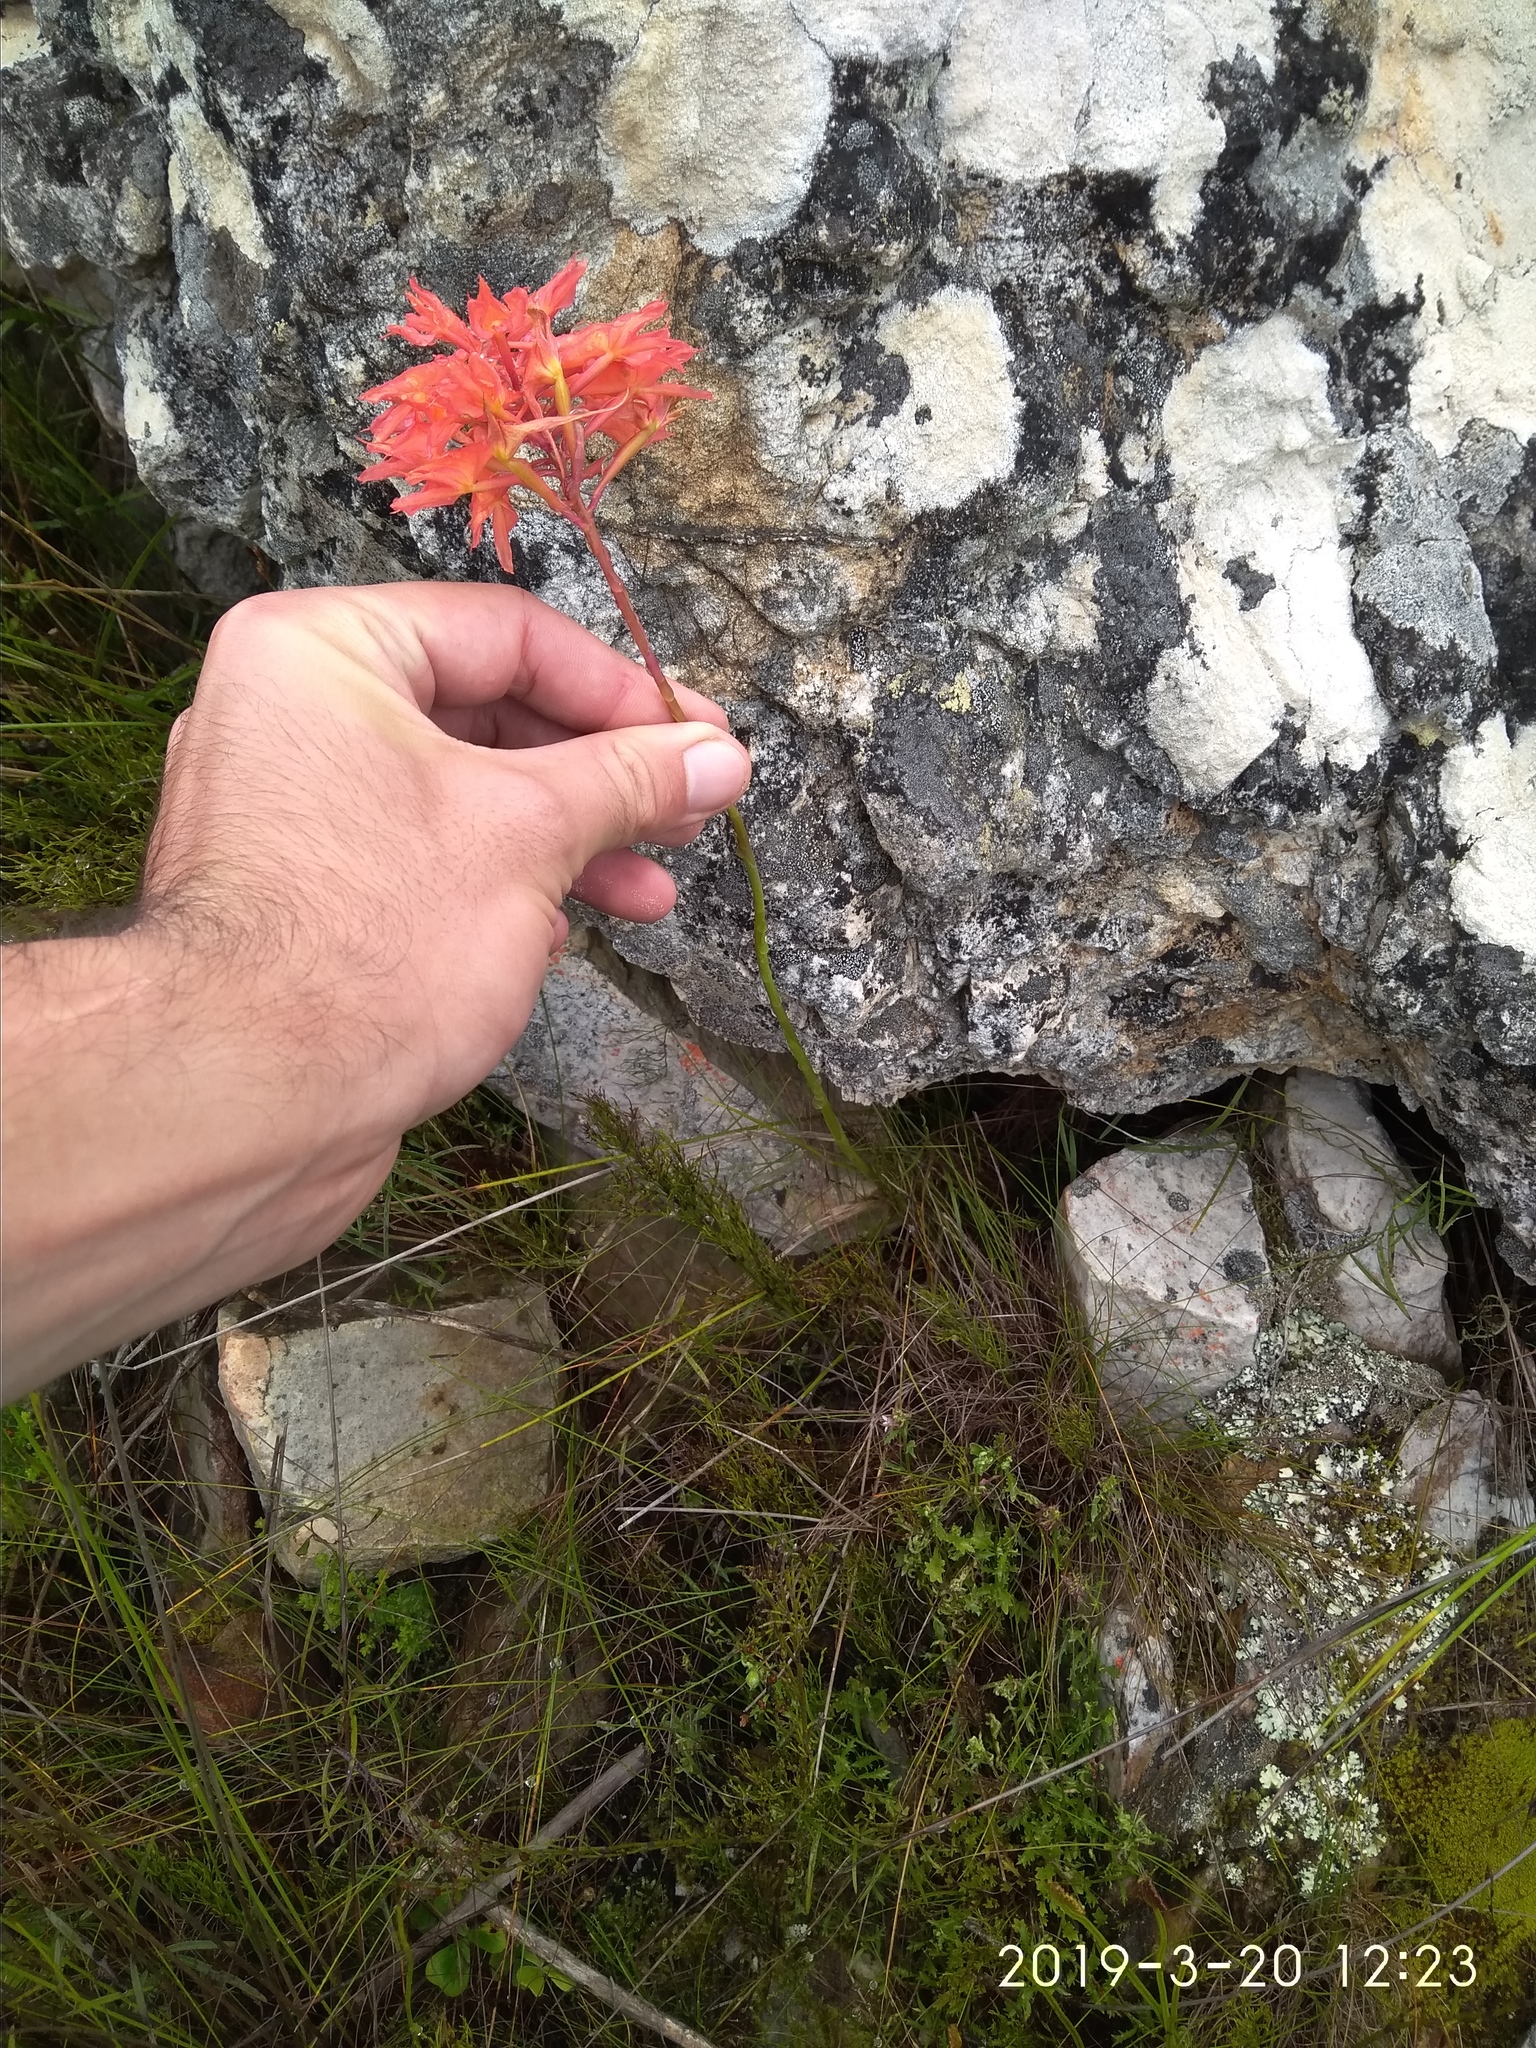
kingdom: Plantae
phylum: Tracheophyta
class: Liliopsida
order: Asparagales
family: Orchidaceae
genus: Disa
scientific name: Disa ferruginea
